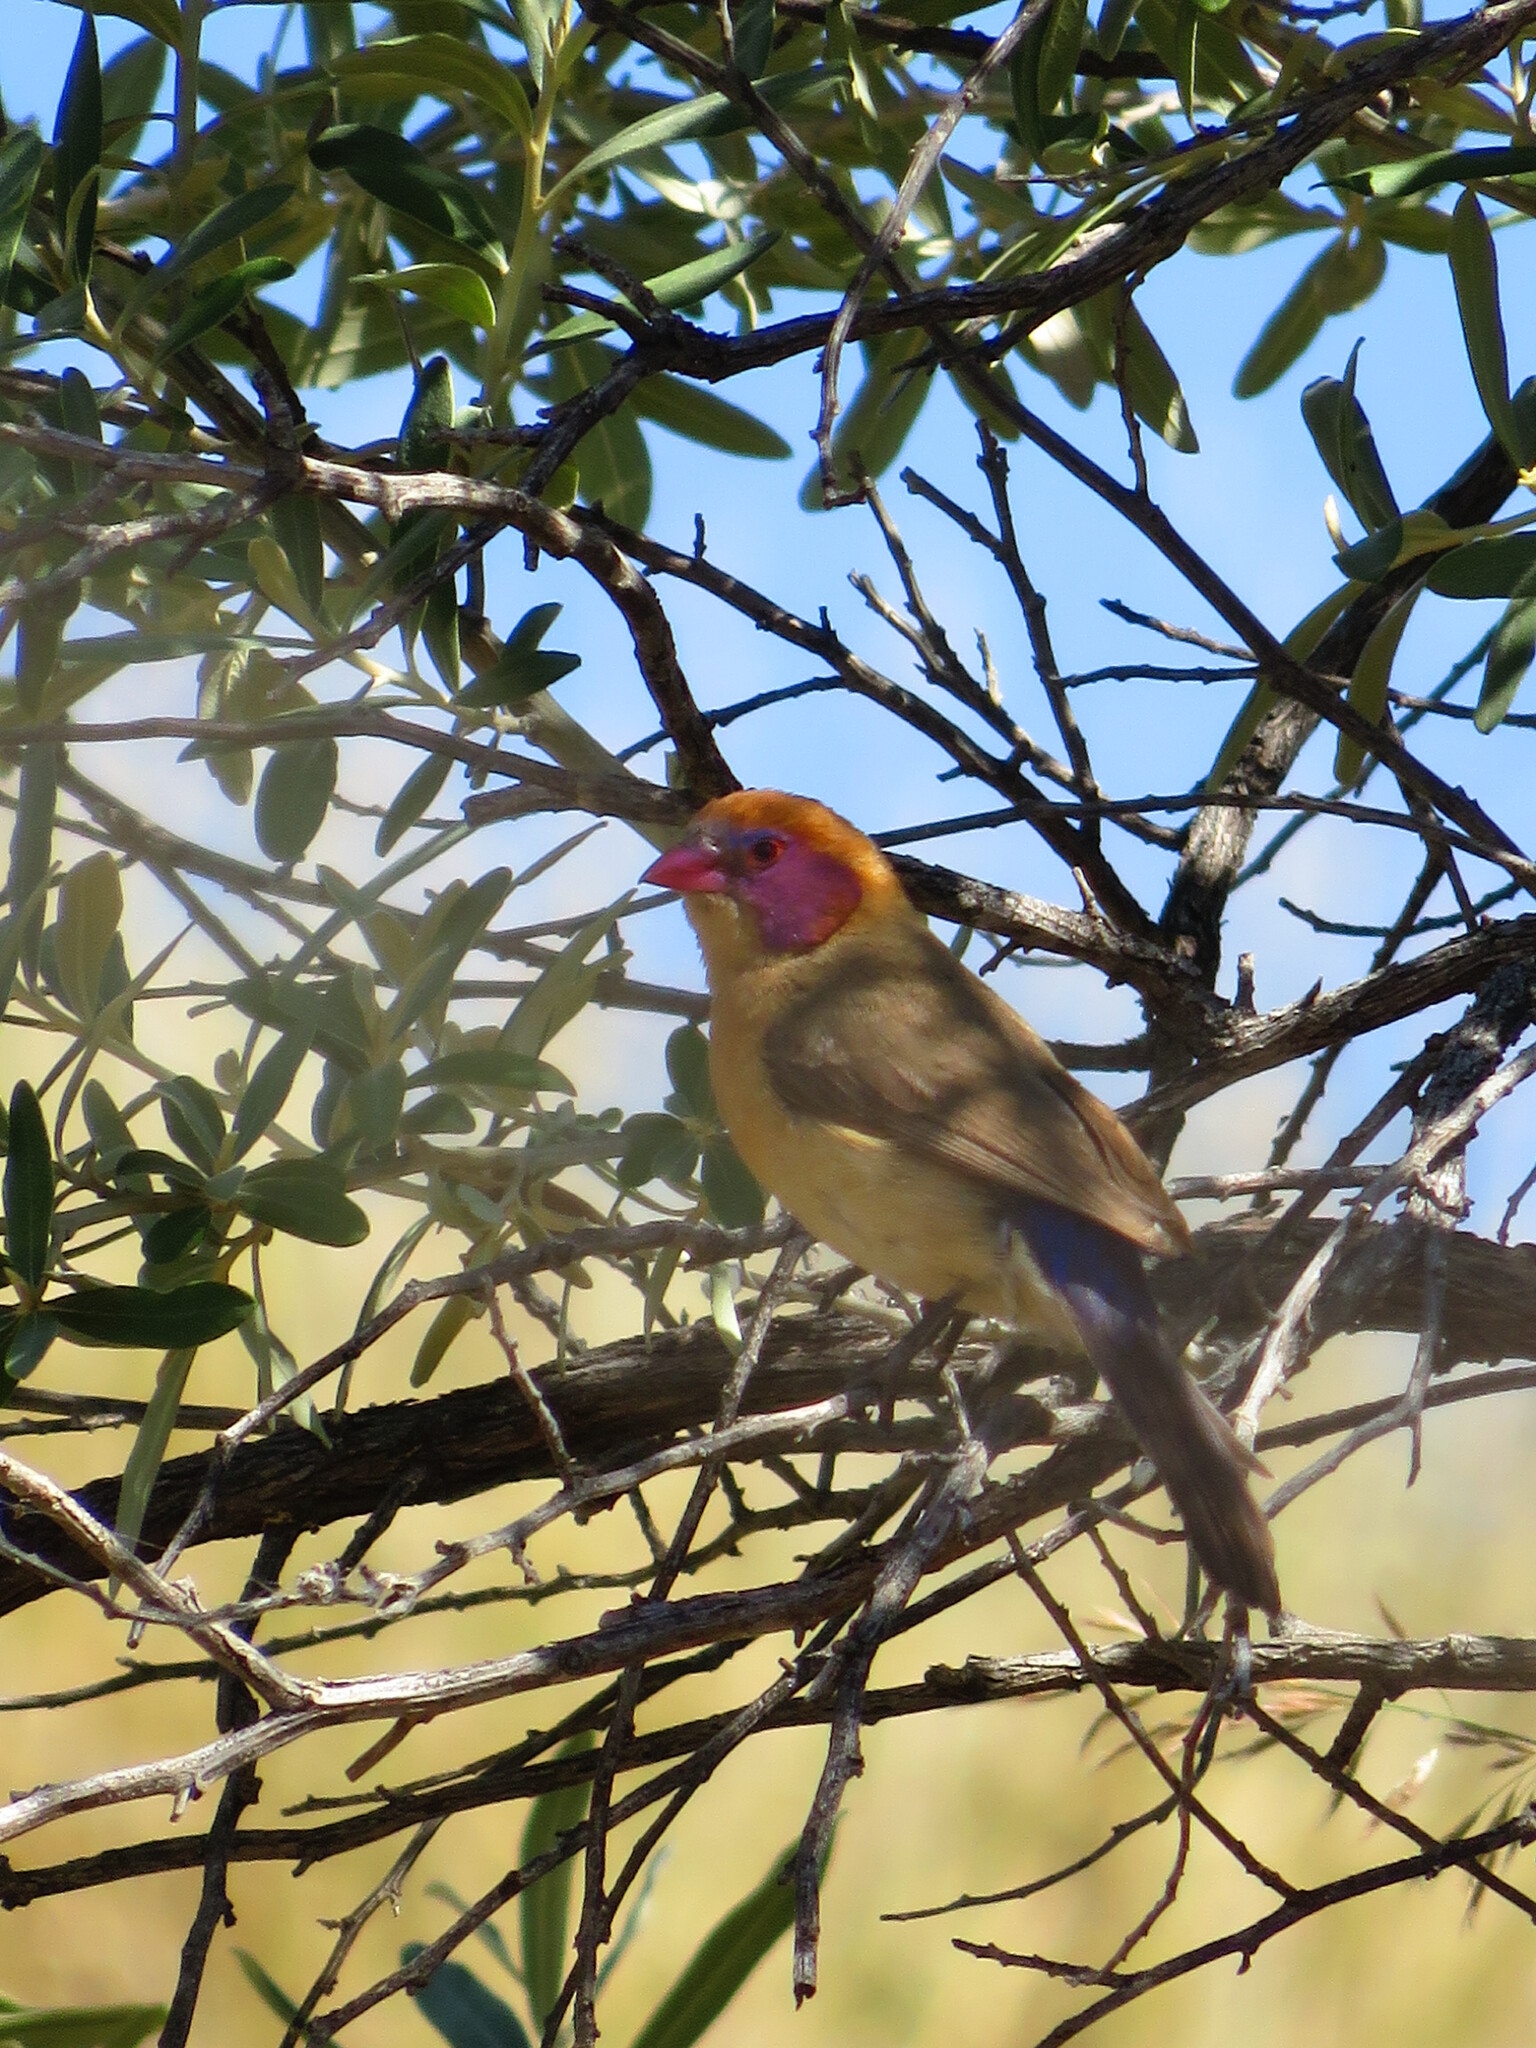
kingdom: Animalia
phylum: Chordata
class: Aves
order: Passeriformes
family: Estrildidae
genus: Uraeginthus
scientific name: Uraeginthus granatinus
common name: Violet-eared waxbill
